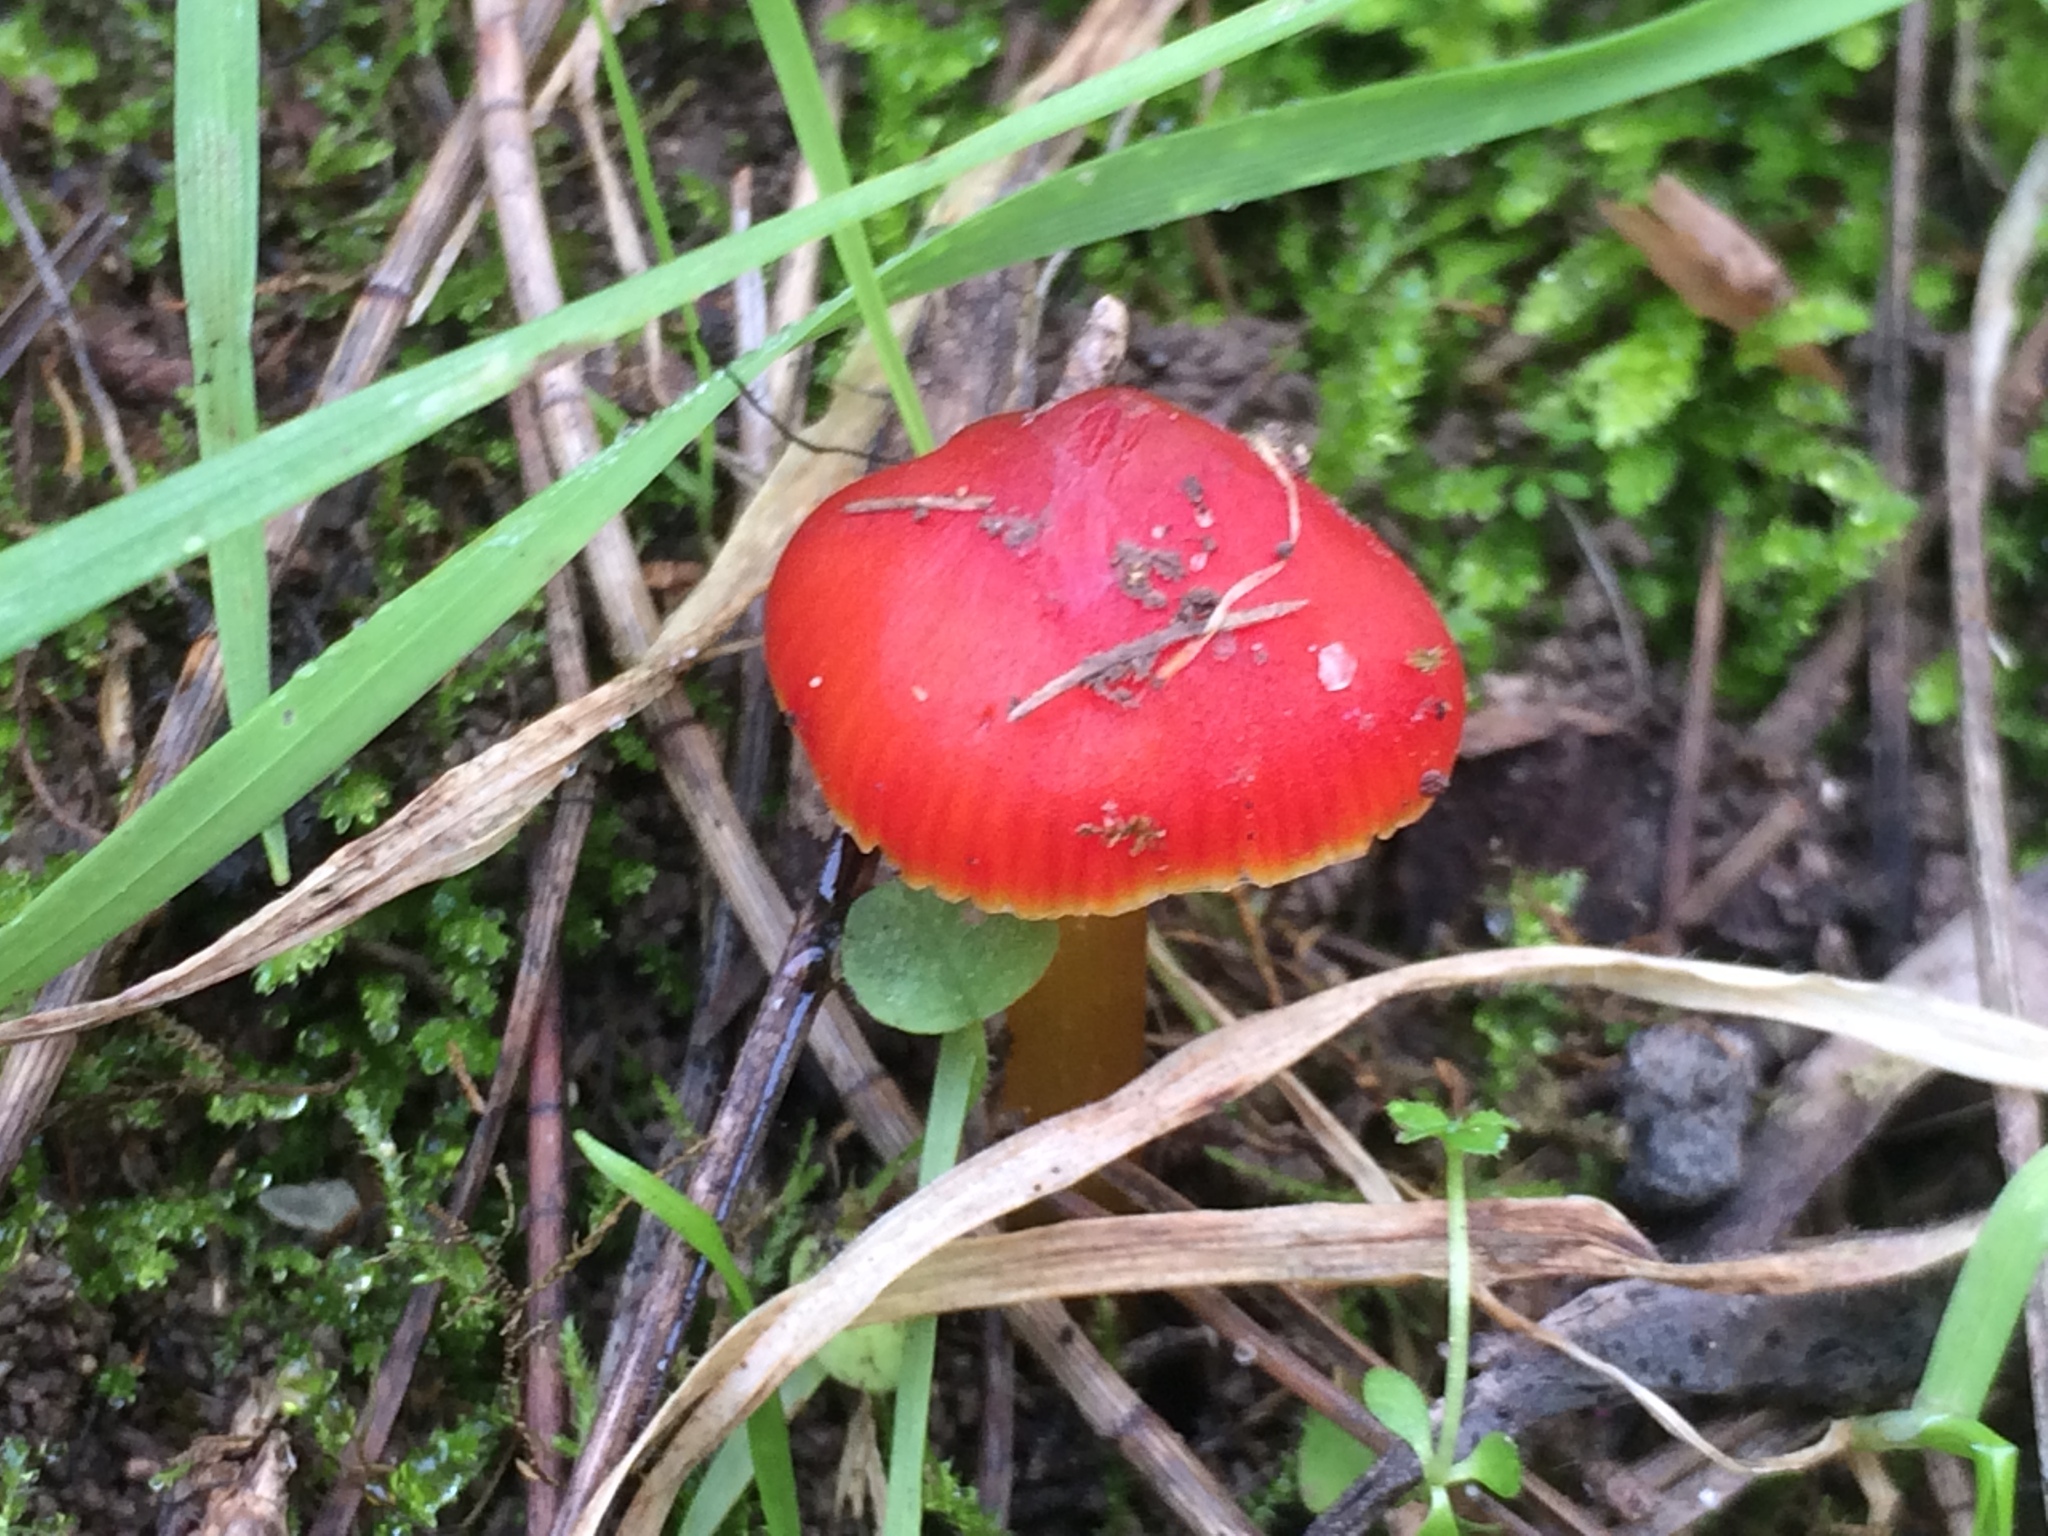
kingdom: Fungi
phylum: Basidiomycota
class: Agaricomycetes
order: Agaricales
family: Hygrophoraceae
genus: Hygrocybe
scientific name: Hygrocybe conica
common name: Blackening wax-cap
